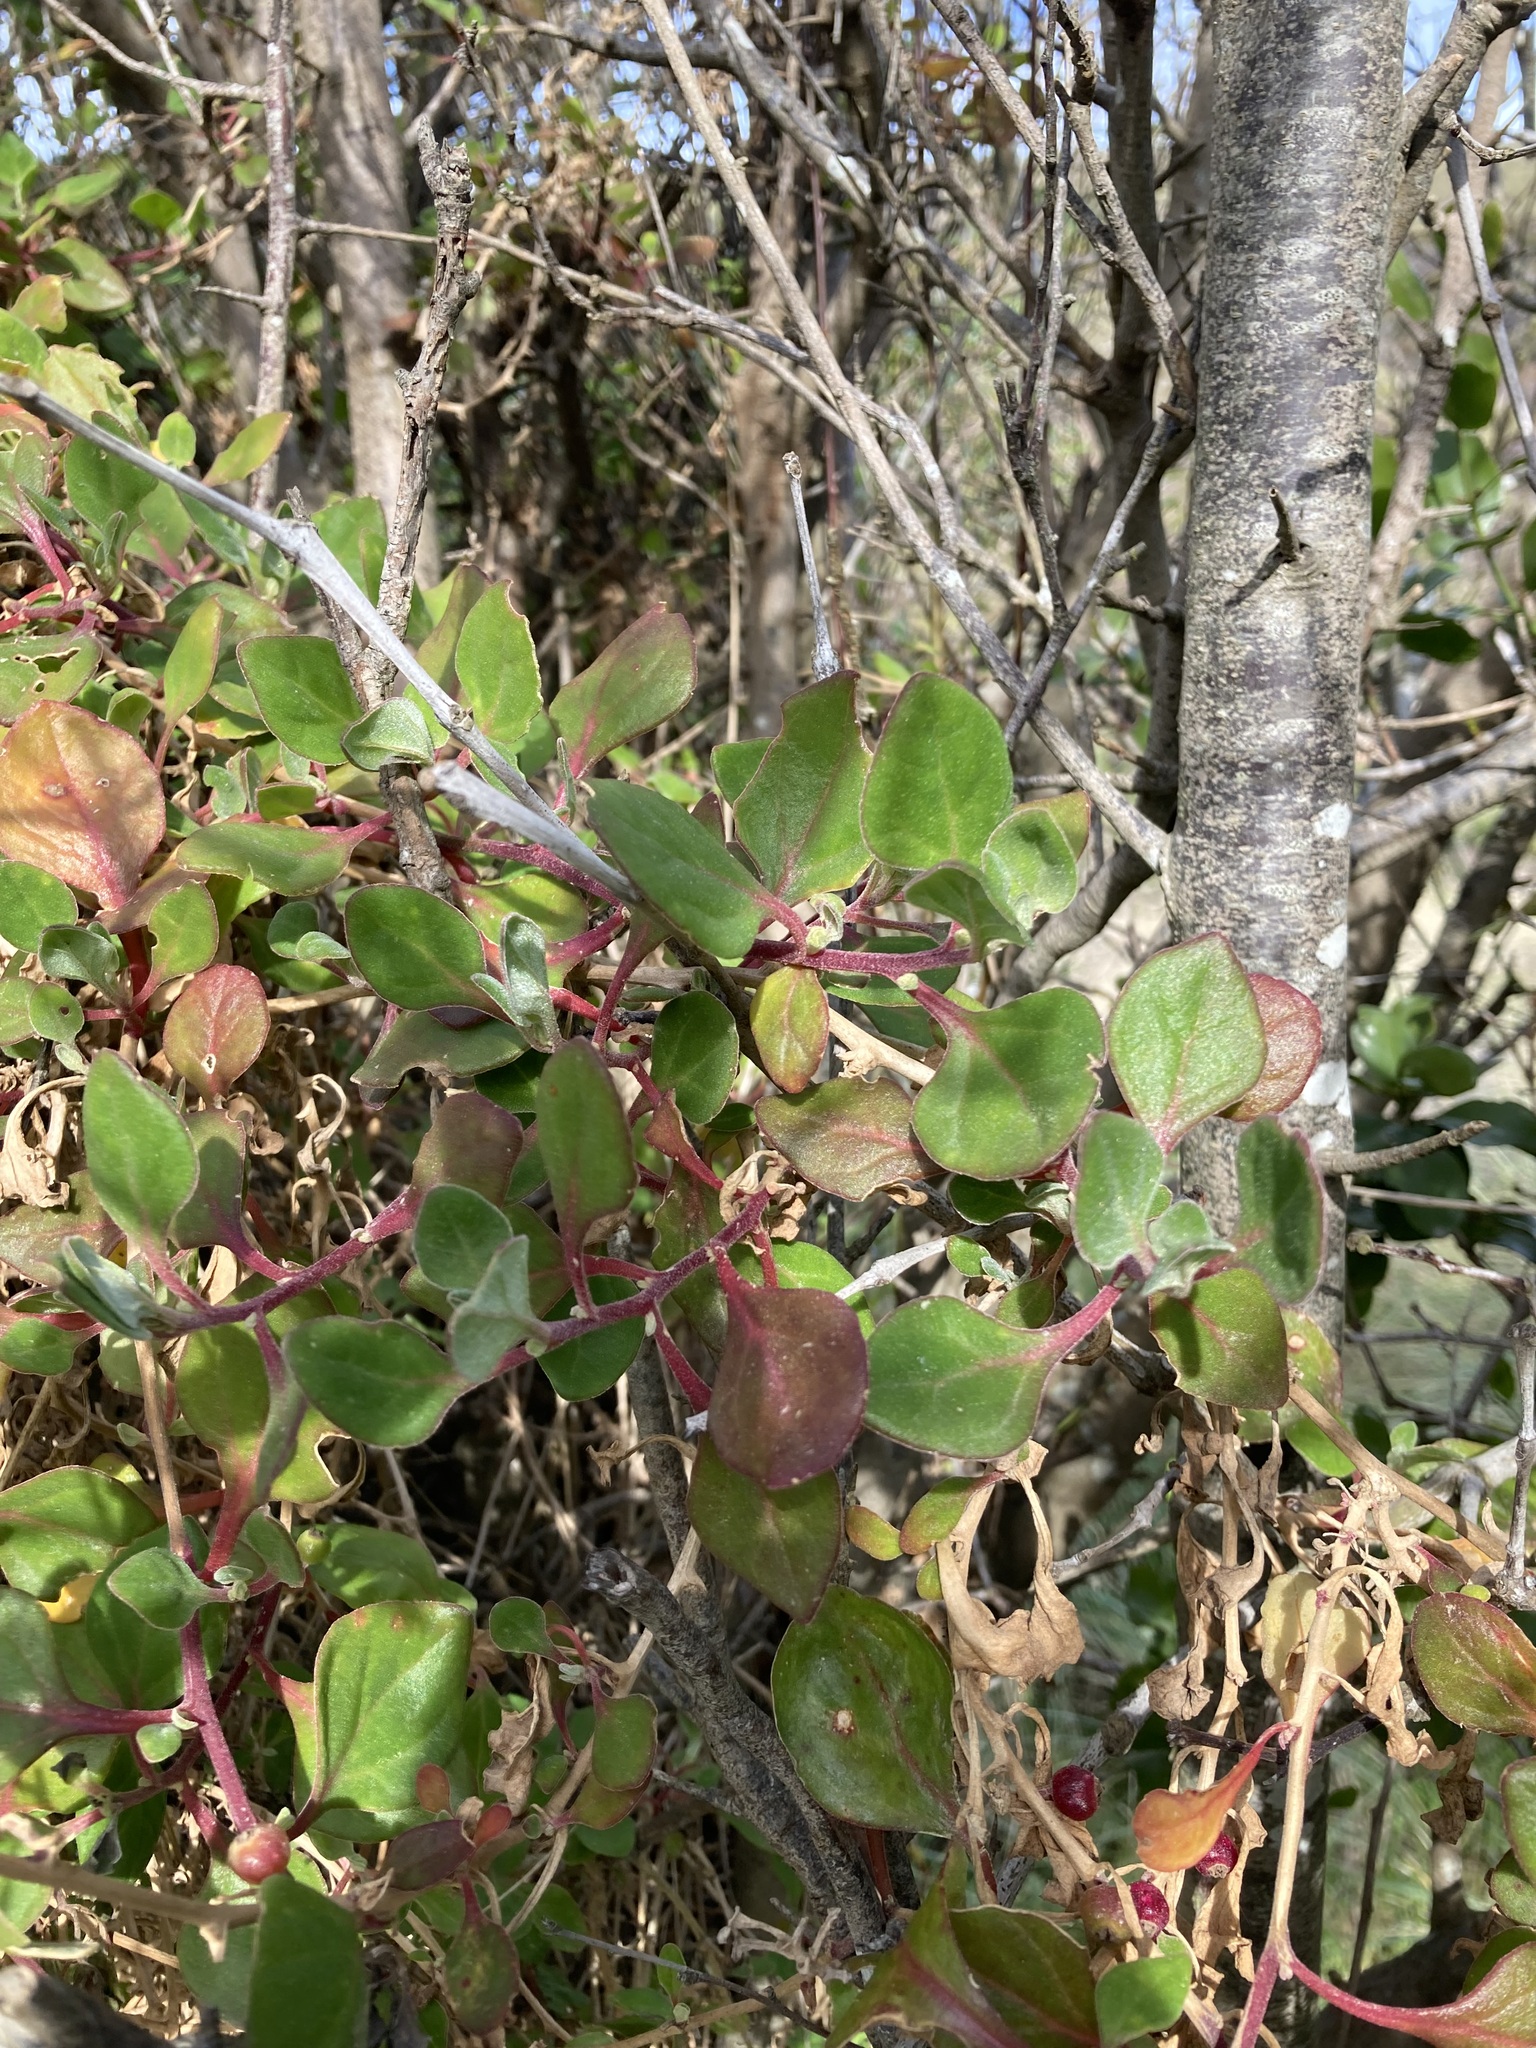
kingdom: Plantae
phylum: Tracheophyta
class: Magnoliopsida
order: Caryophyllales
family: Aizoaceae
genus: Tetragonia
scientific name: Tetragonia implexicoma
